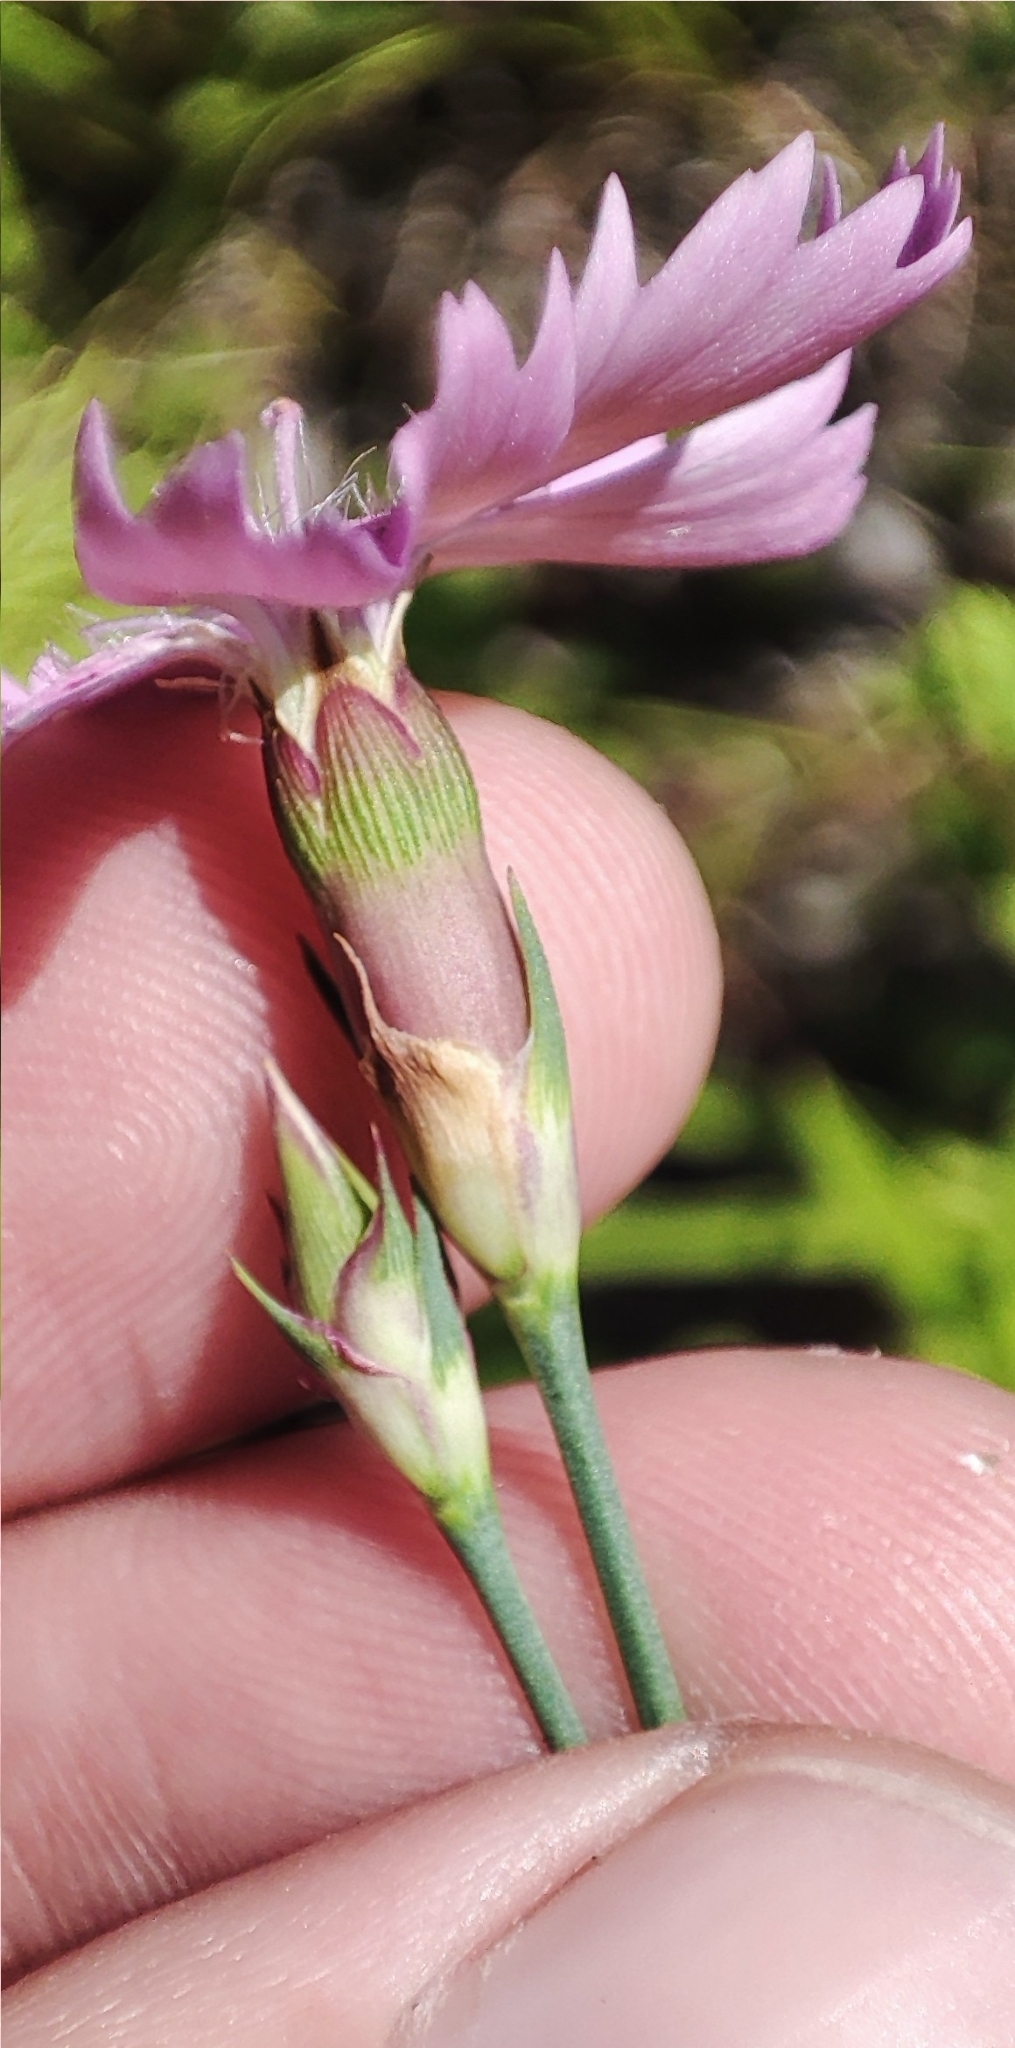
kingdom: Plantae
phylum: Tracheophyta
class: Magnoliopsida
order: Caryophyllales
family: Caryophyllaceae
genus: Dianthus
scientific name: Dianthus chinensis
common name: Rainbow pink
